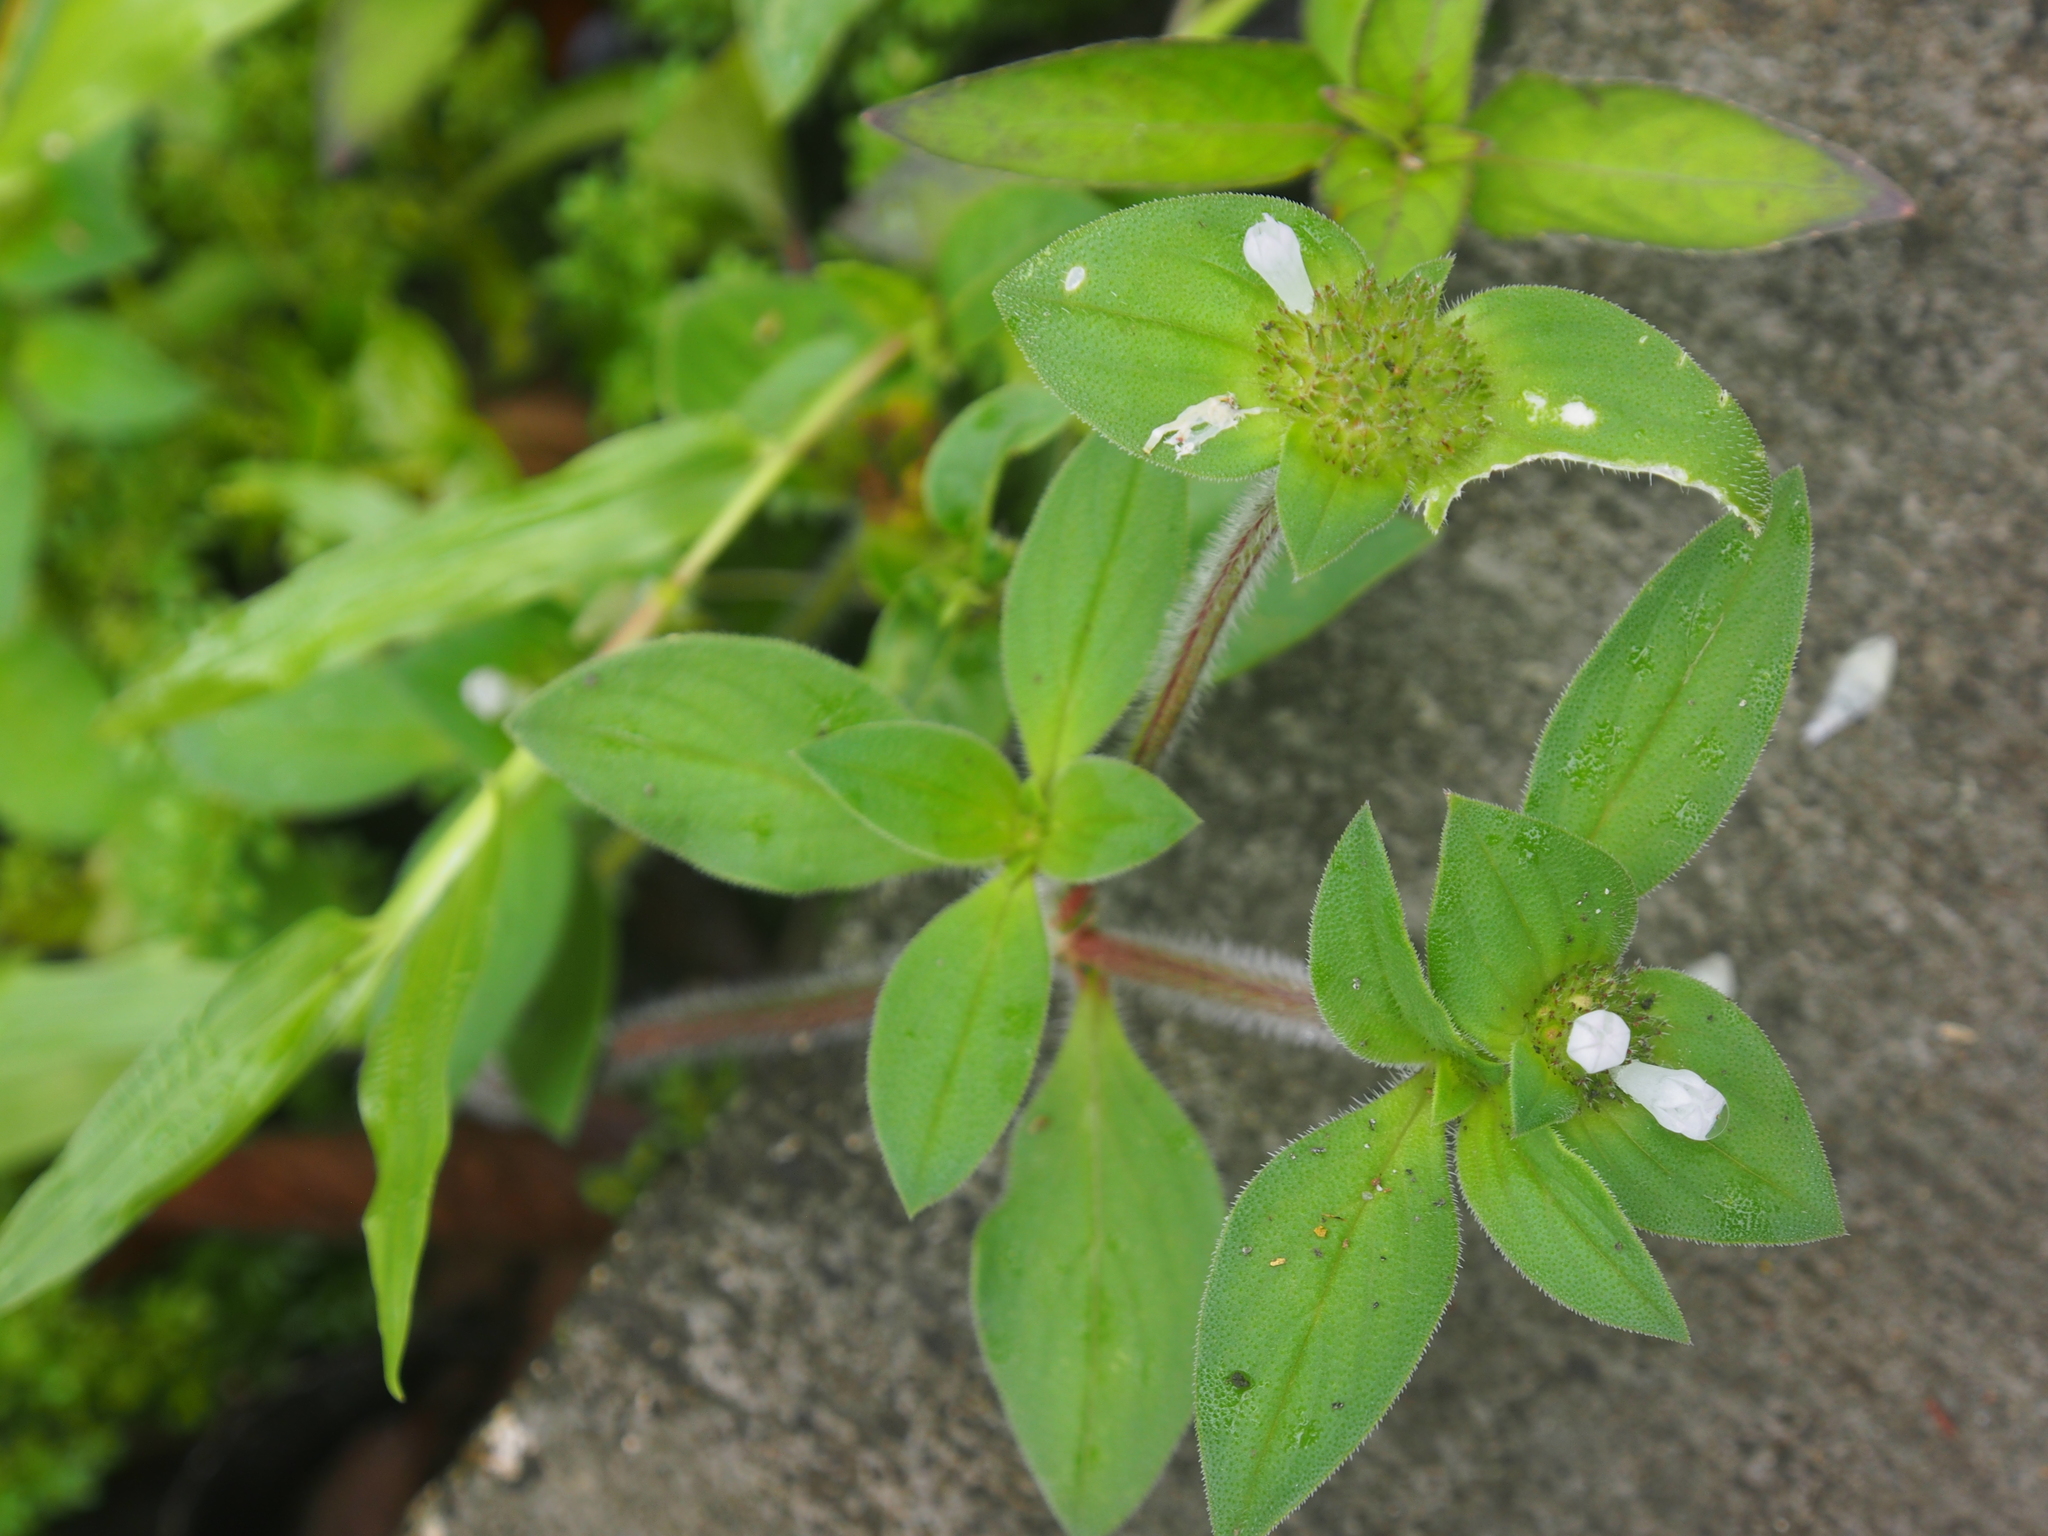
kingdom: Plantae
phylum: Tracheophyta
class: Magnoliopsida
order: Gentianales
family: Rubiaceae
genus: Richardia
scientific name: Richardia scabra
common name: Rough mexican clover
